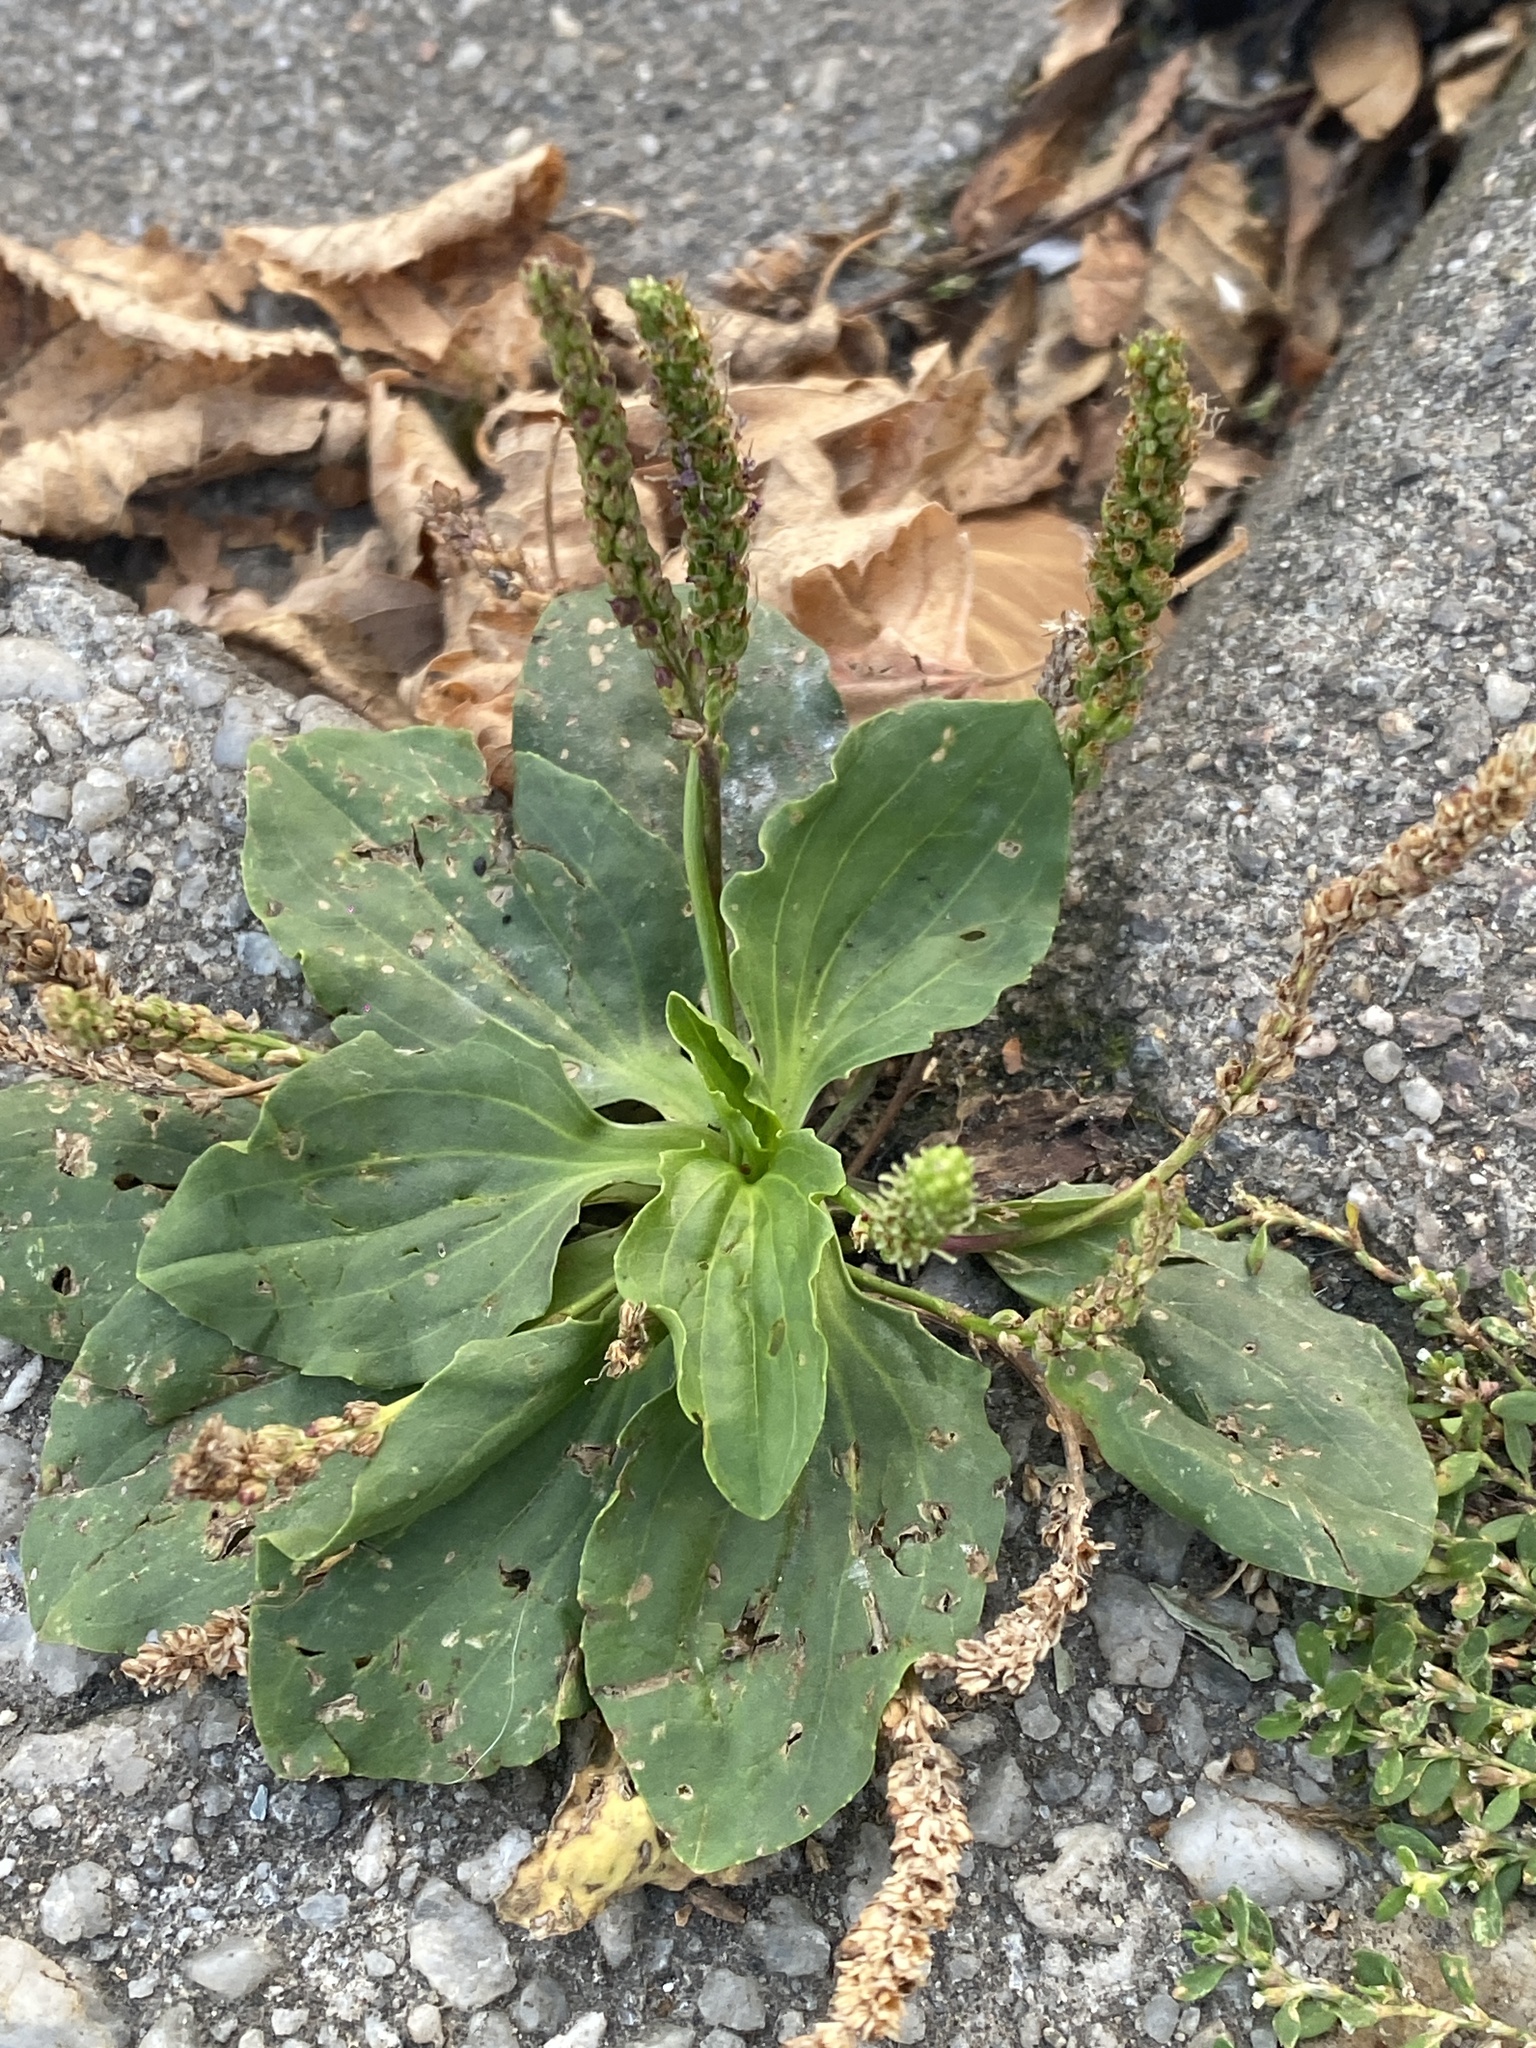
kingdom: Plantae
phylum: Tracheophyta
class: Magnoliopsida
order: Lamiales
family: Plantaginaceae
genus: Plantago
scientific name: Plantago major
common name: Common plantain
